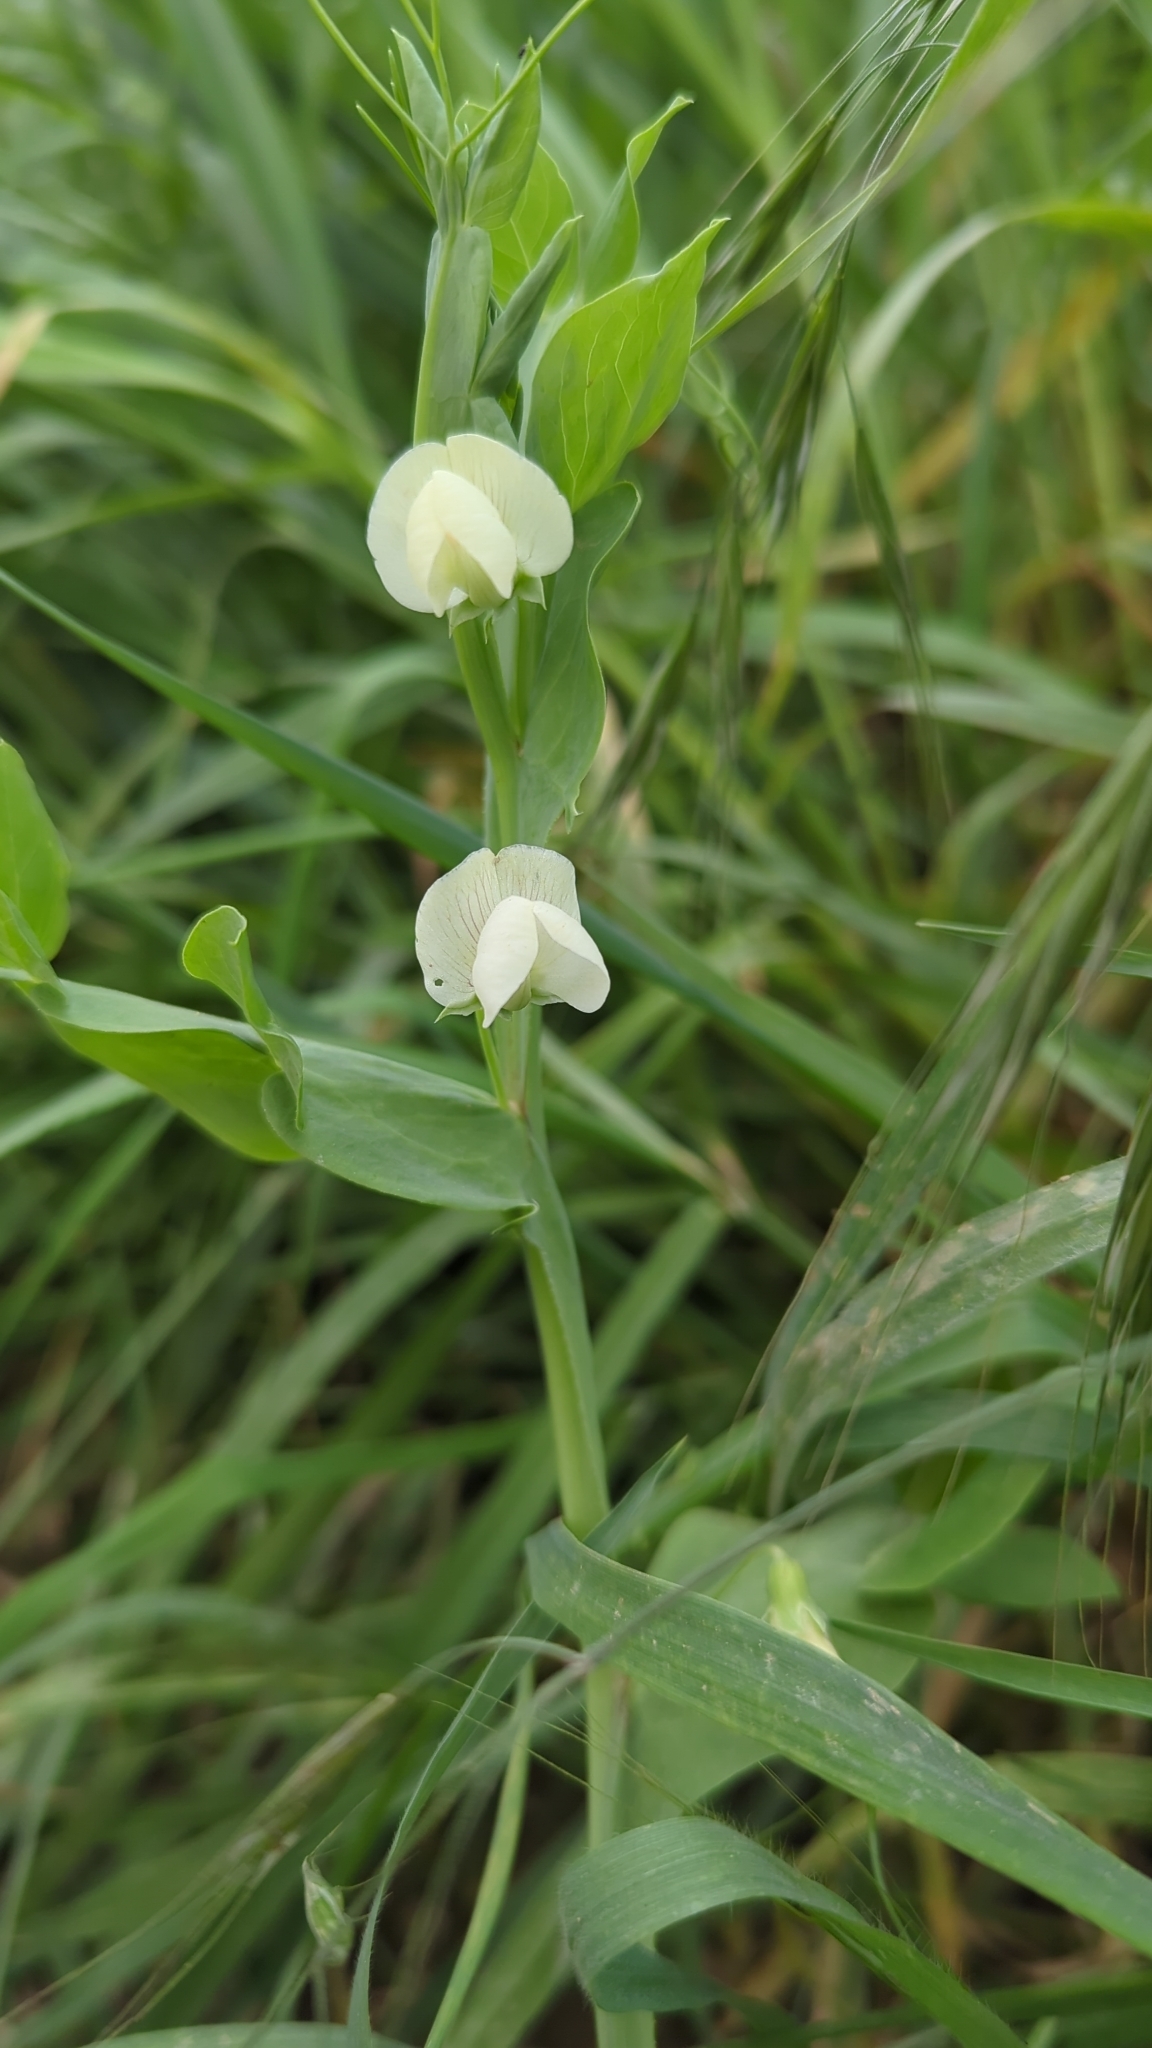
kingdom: Plantae
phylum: Tracheophyta
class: Magnoliopsida
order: Fabales
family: Fabaceae
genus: Lathyrus
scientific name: Lathyrus ochrus
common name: Winged vetchling
